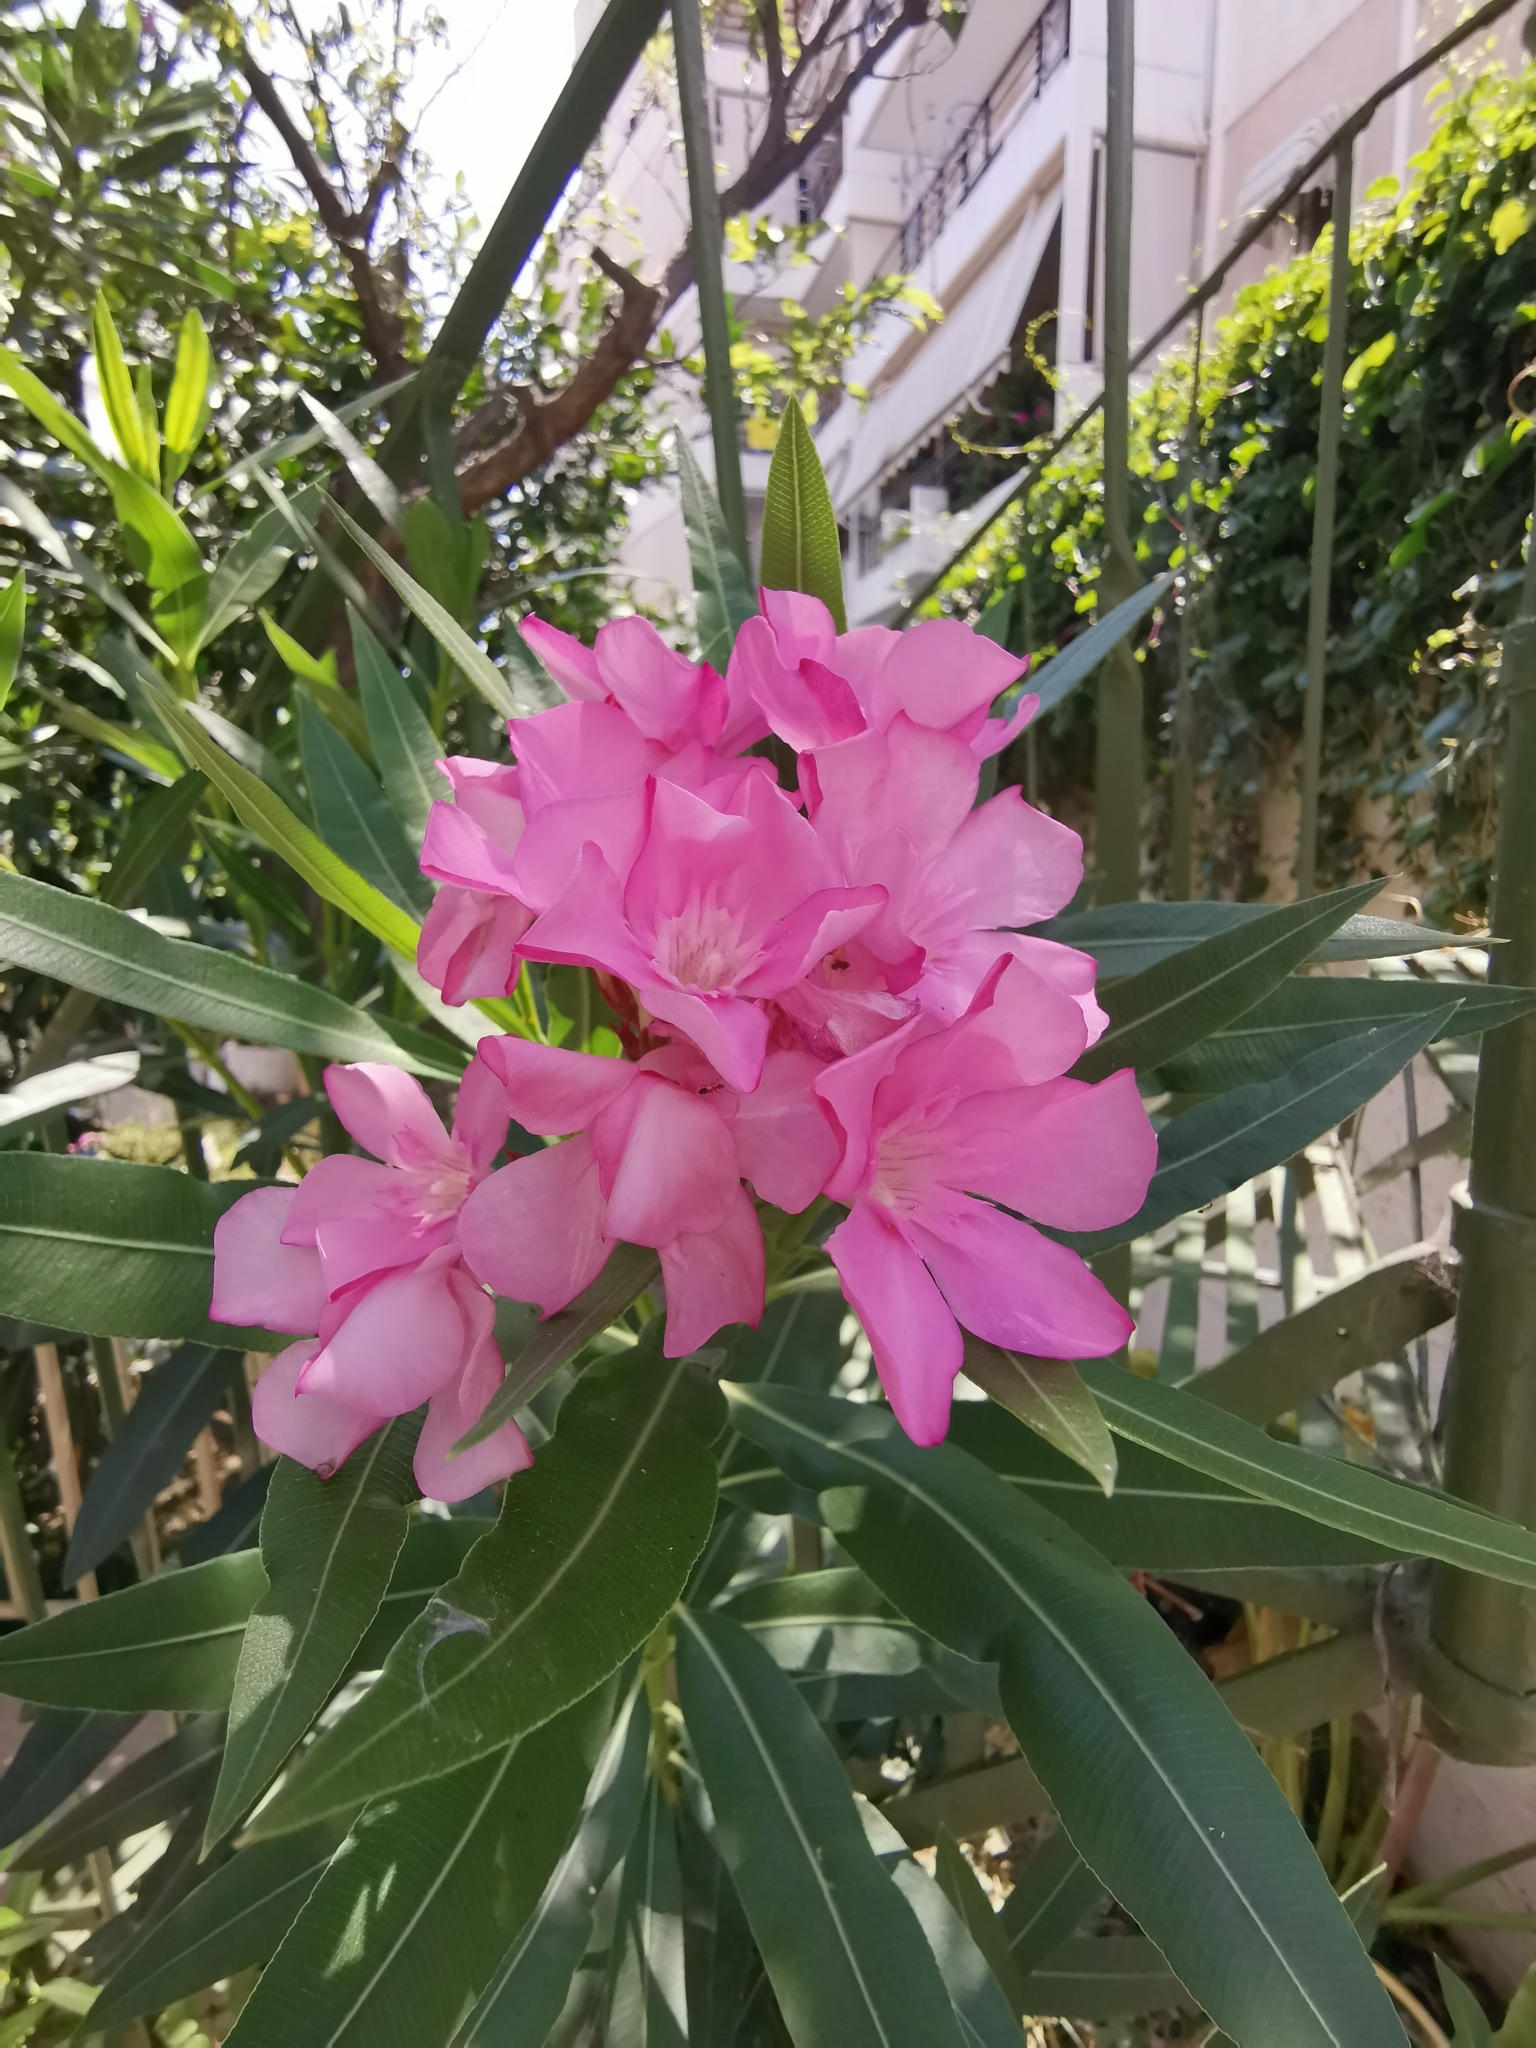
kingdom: Animalia
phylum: Arthropoda
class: Insecta
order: Hemiptera
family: Aphididae
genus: Aphis
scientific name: Aphis nerii
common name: Oleander aphid
